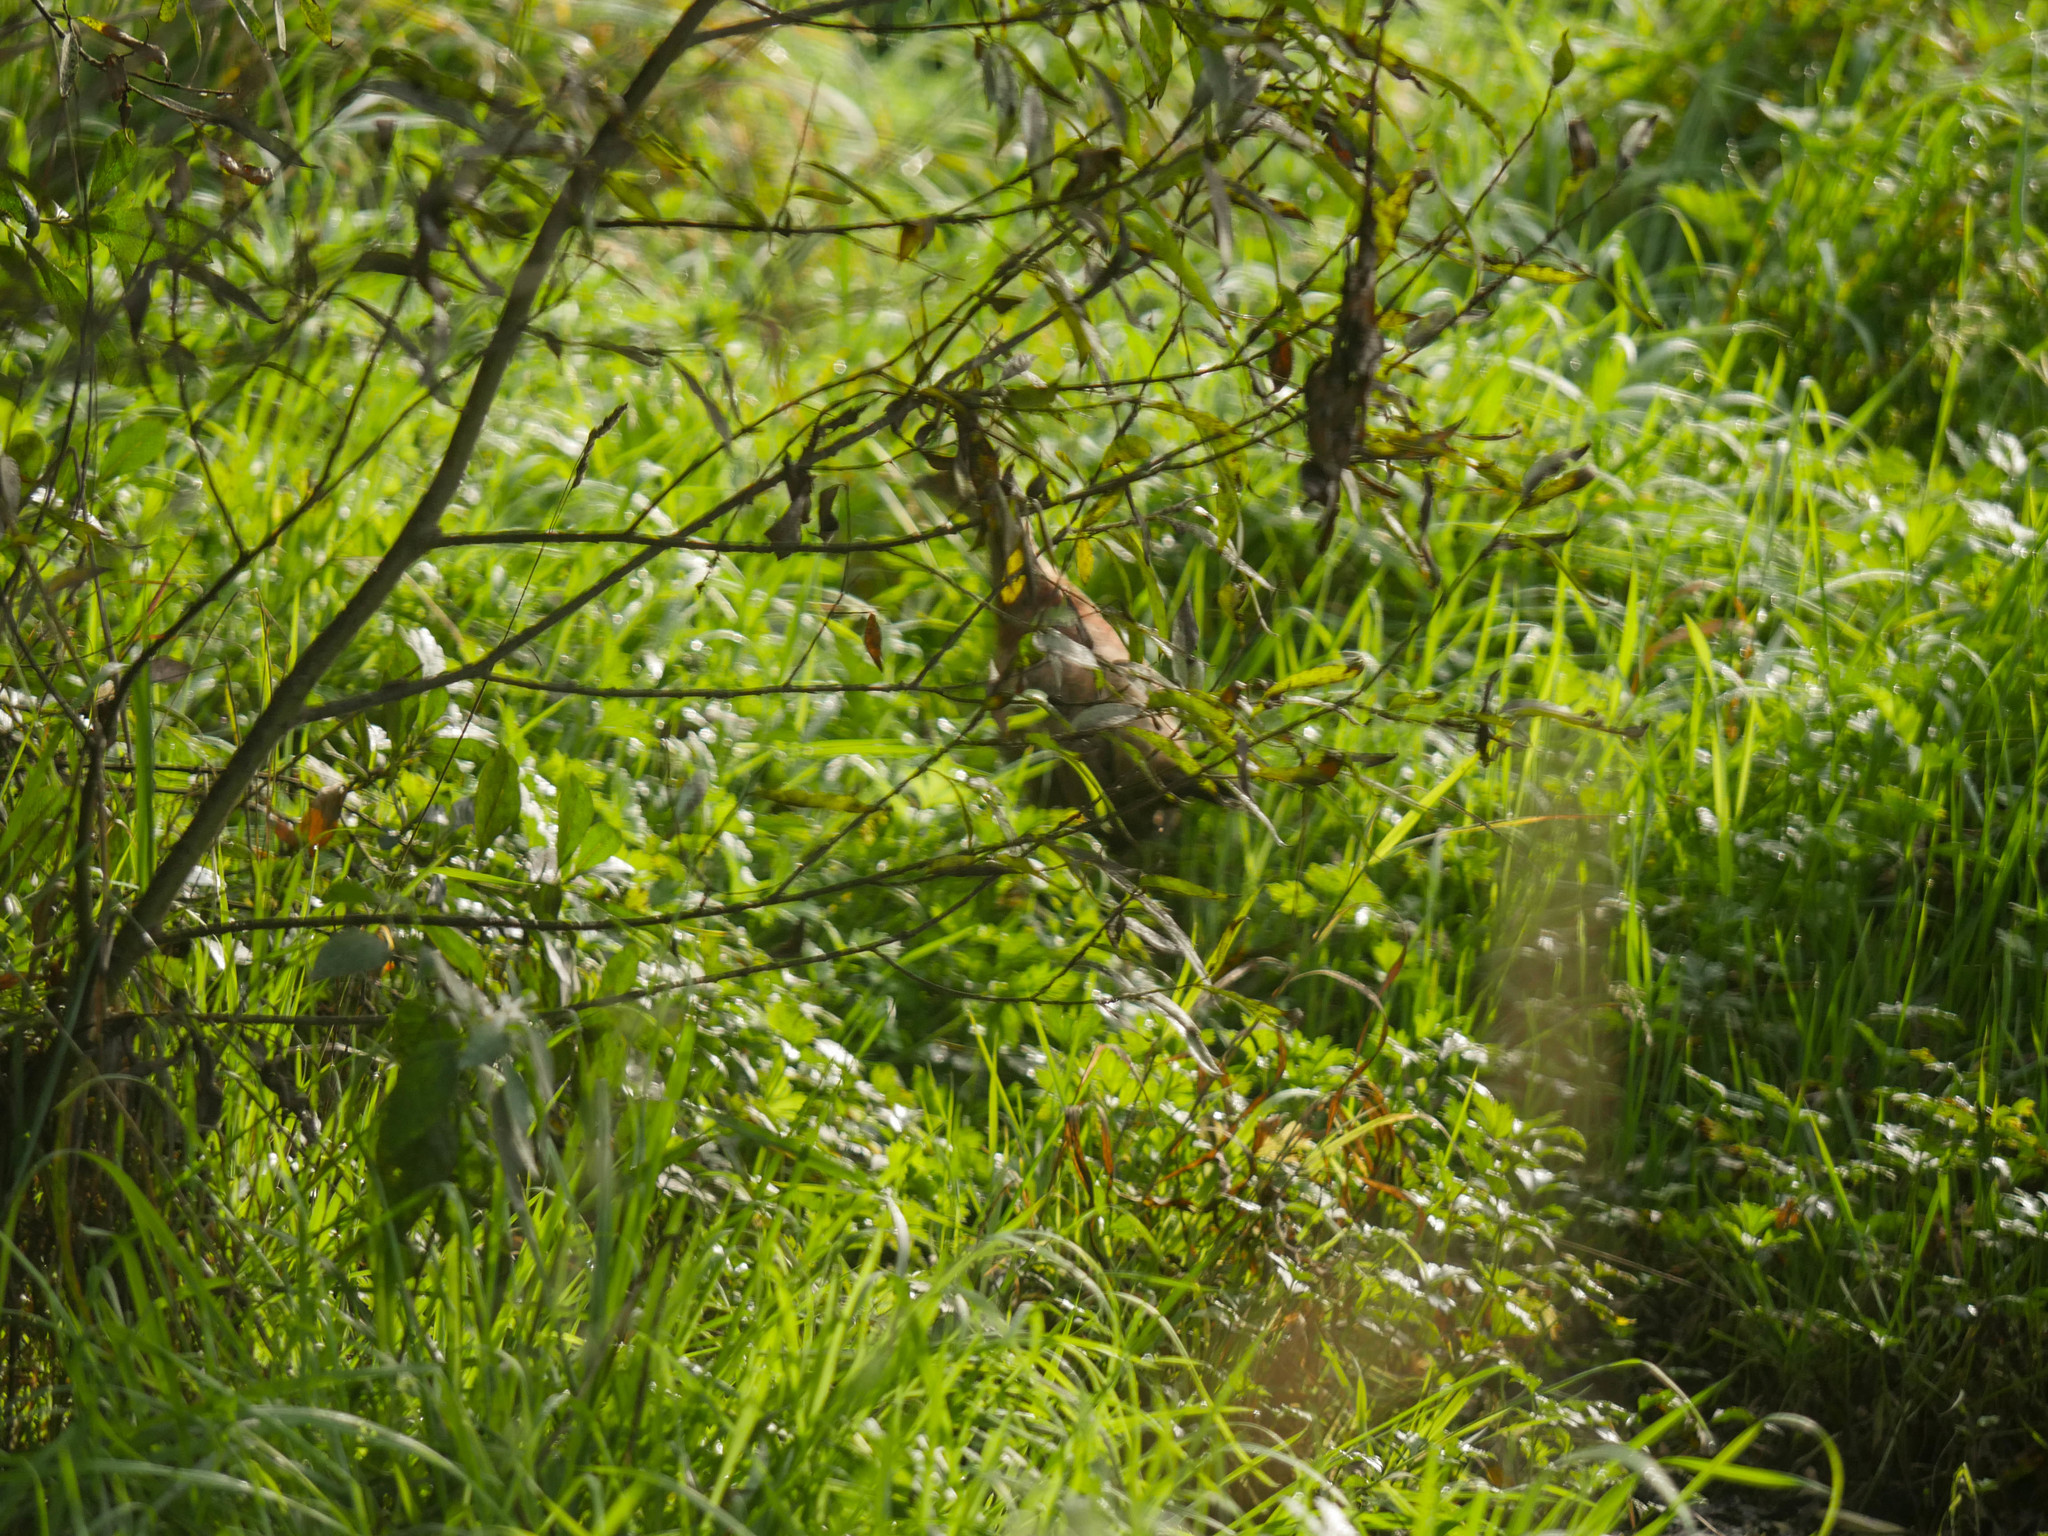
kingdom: Animalia
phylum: Chordata
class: Aves
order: Galliformes
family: Phasianidae
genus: Phasianus
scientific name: Phasianus colchicus
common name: Common pheasant
